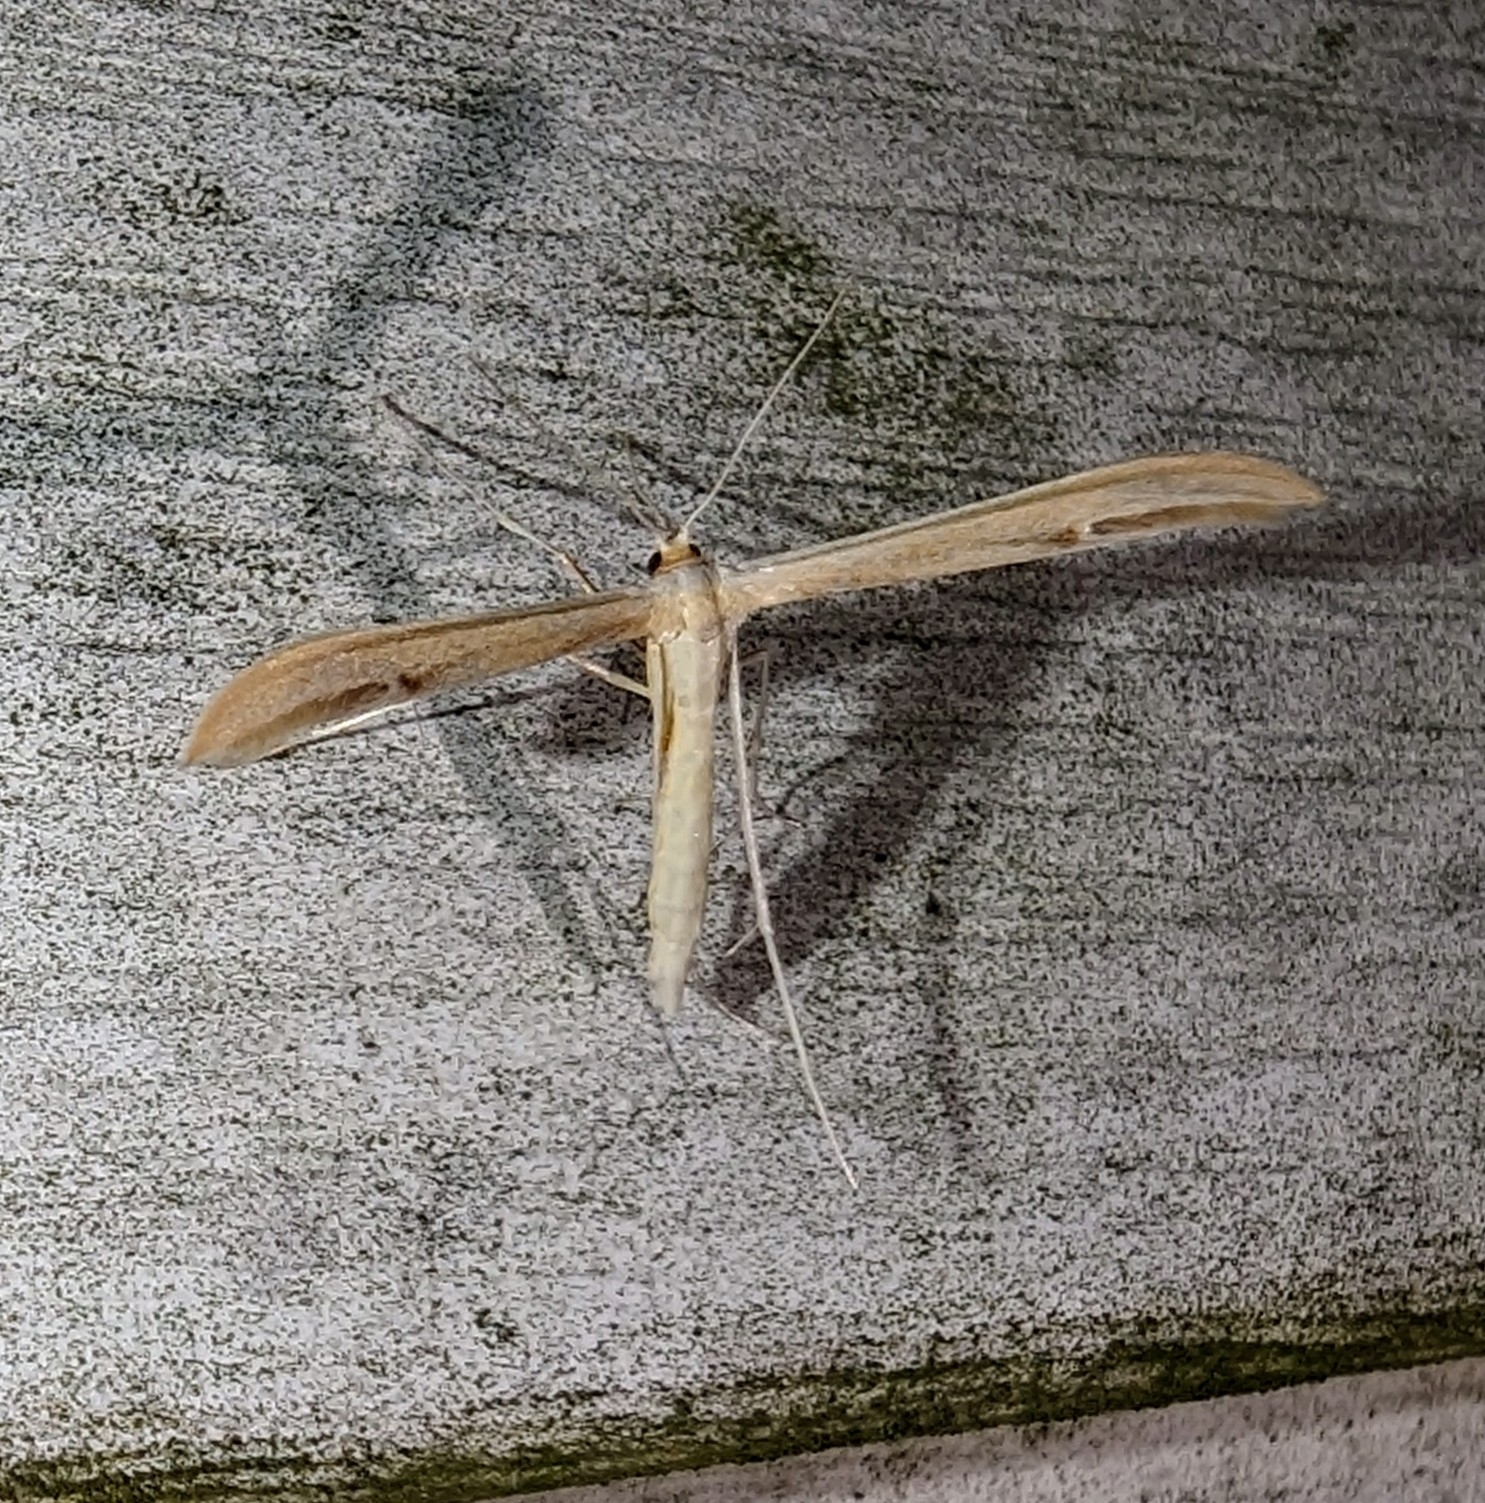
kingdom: Animalia
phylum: Arthropoda
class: Insecta
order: Lepidoptera
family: Pterophoridae
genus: Hellinsia
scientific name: Hellinsia paleaceus
